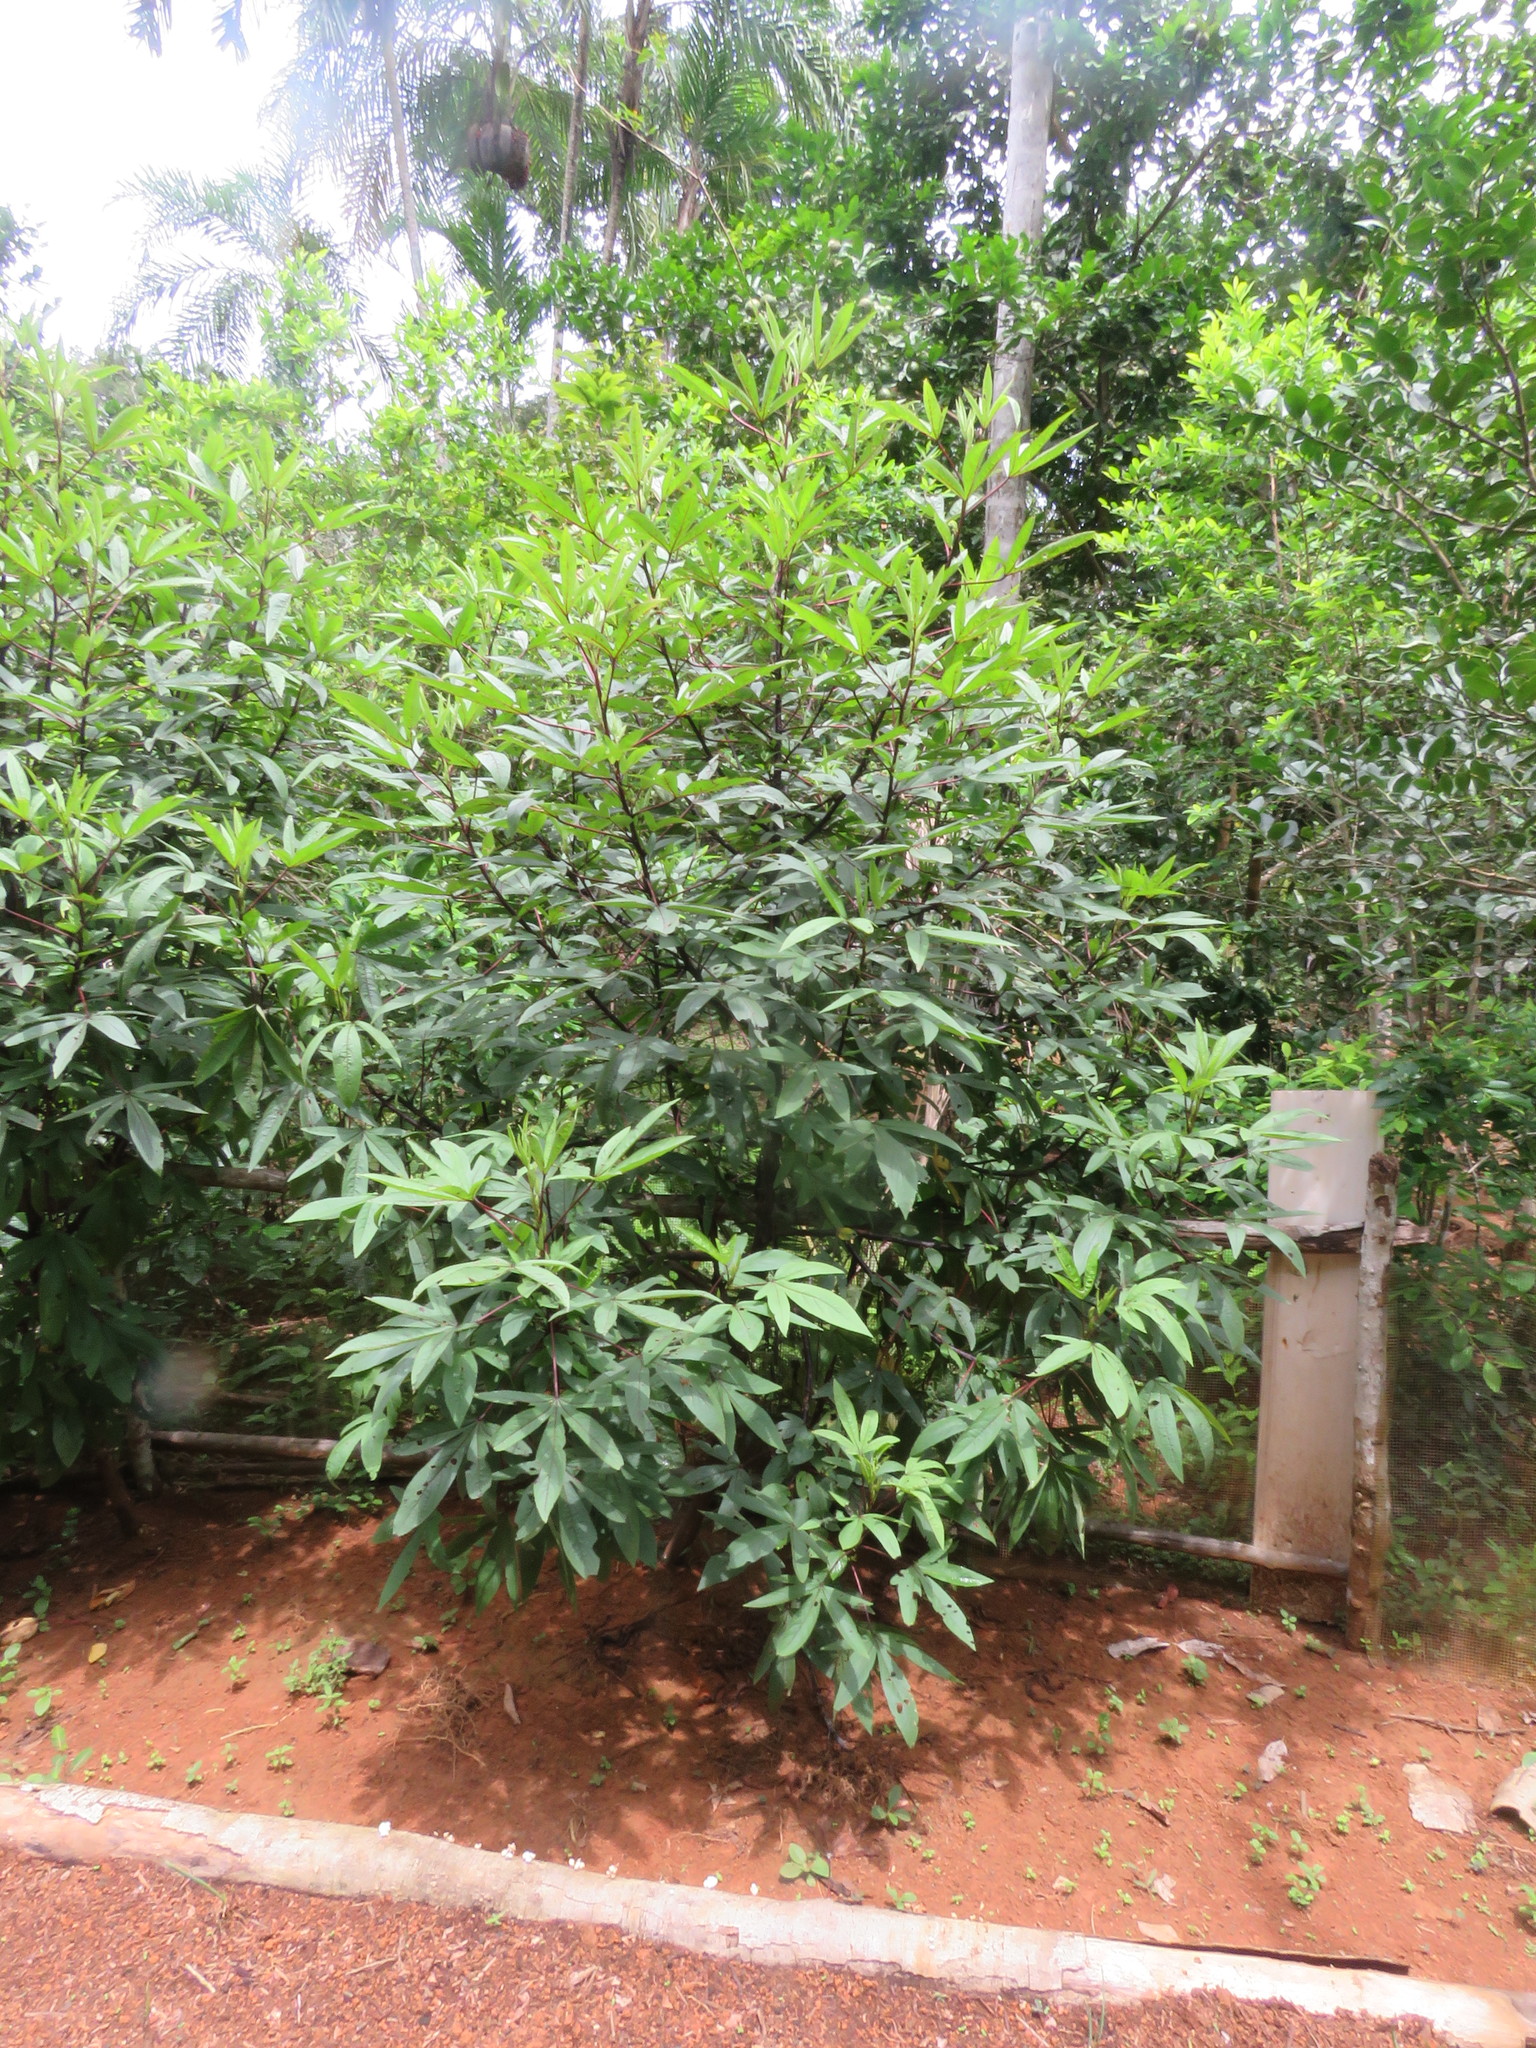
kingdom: Plantae
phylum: Tracheophyta
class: Magnoliopsida
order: Malvales
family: Malvaceae
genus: Hibiscus
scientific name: Hibiscus sabdariffa
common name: Roselle
